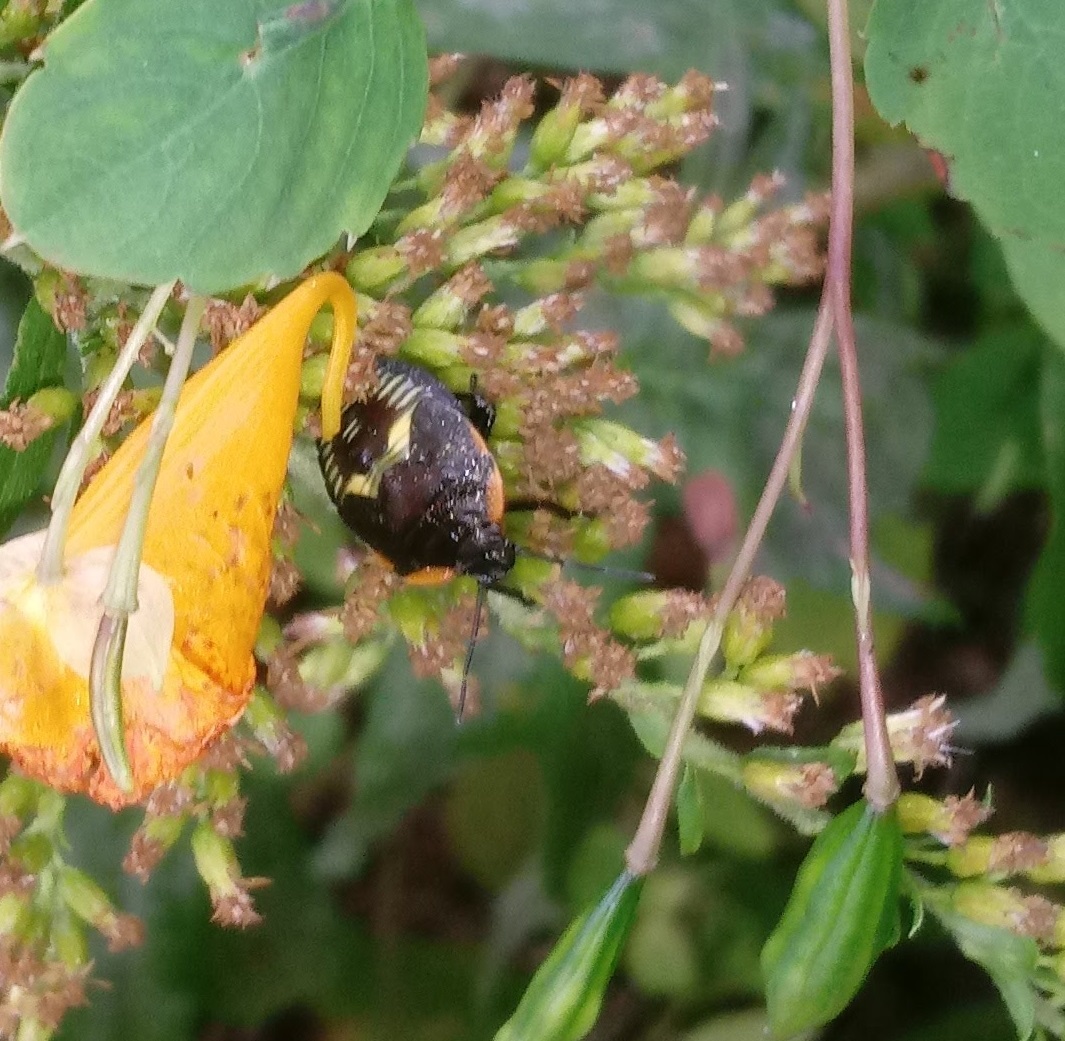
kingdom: Animalia
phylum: Arthropoda
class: Insecta
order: Hemiptera
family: Pentatomidae
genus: Chinavia
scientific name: Chinavia hilaris
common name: Green stink bug
